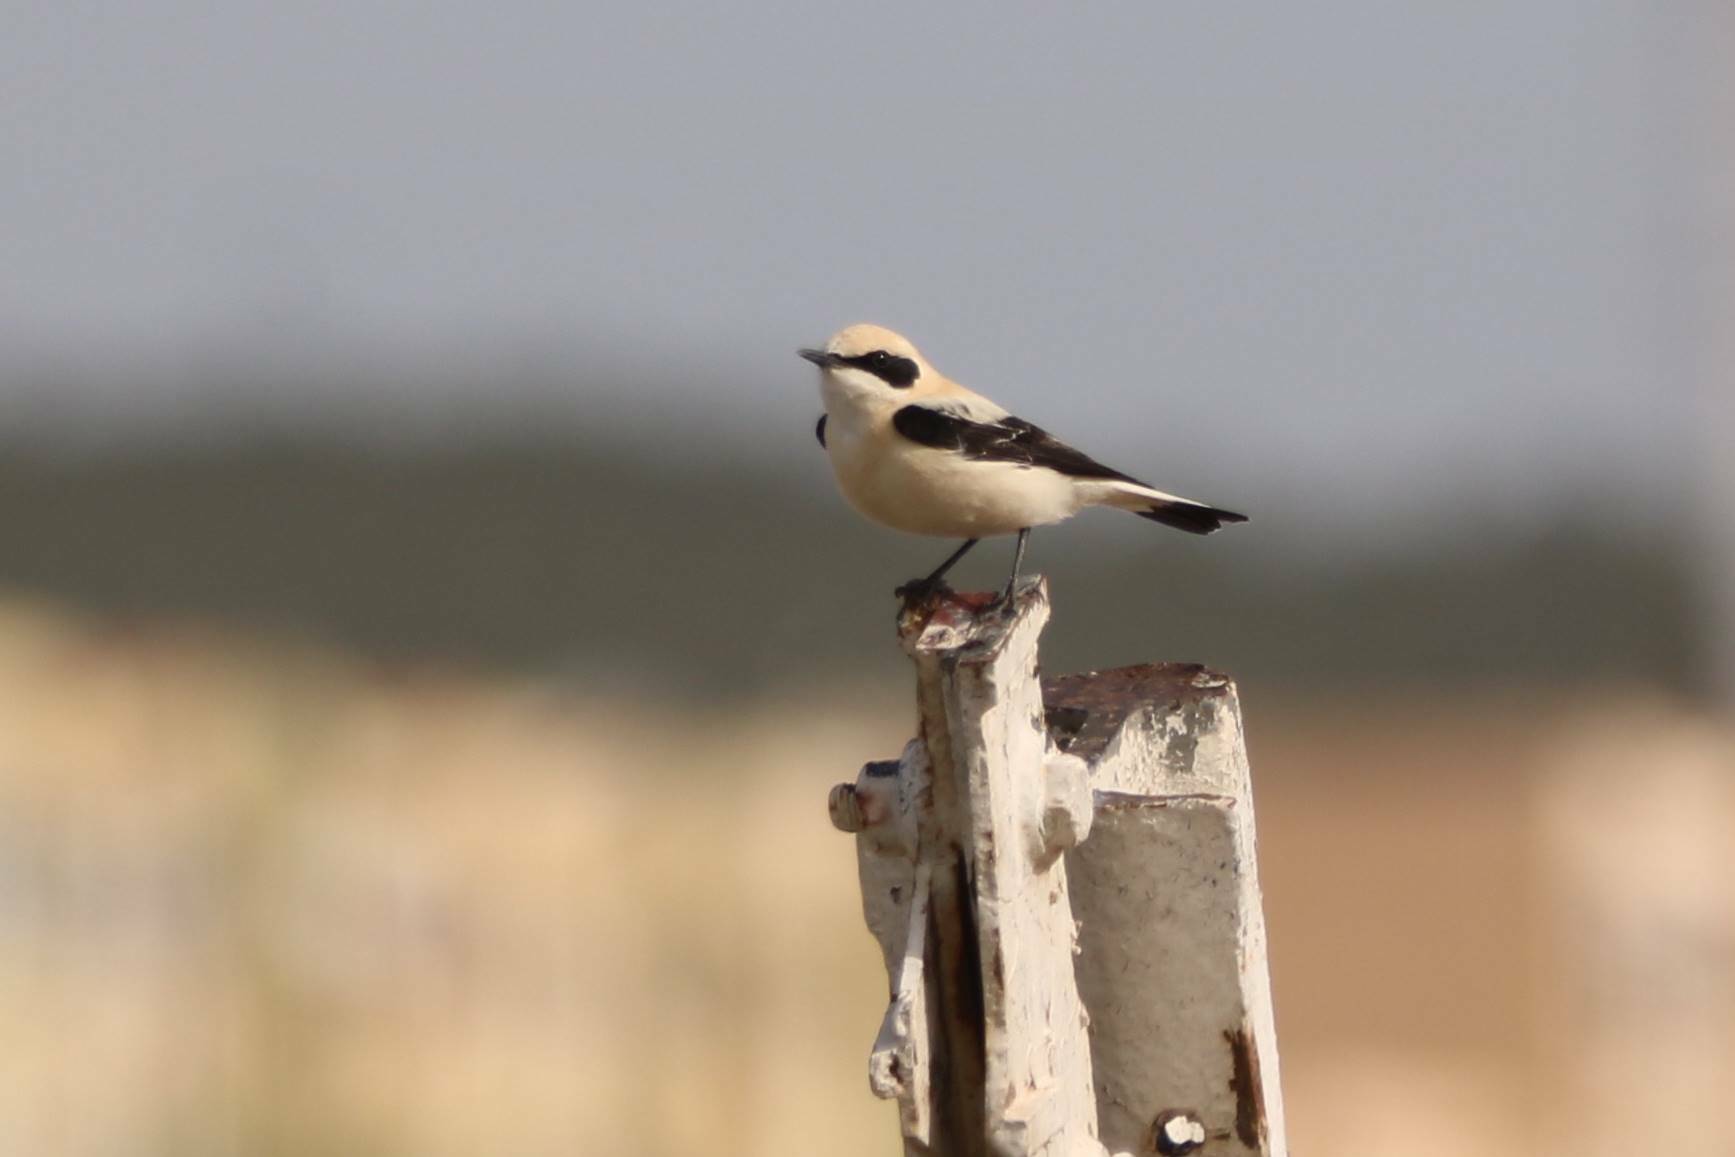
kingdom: Animalia
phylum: Chordata
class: Aves
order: Passeriformes
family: Muscicapidae
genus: Oenanthe
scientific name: Oenanthe hispanica
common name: Black-eared wheatear
